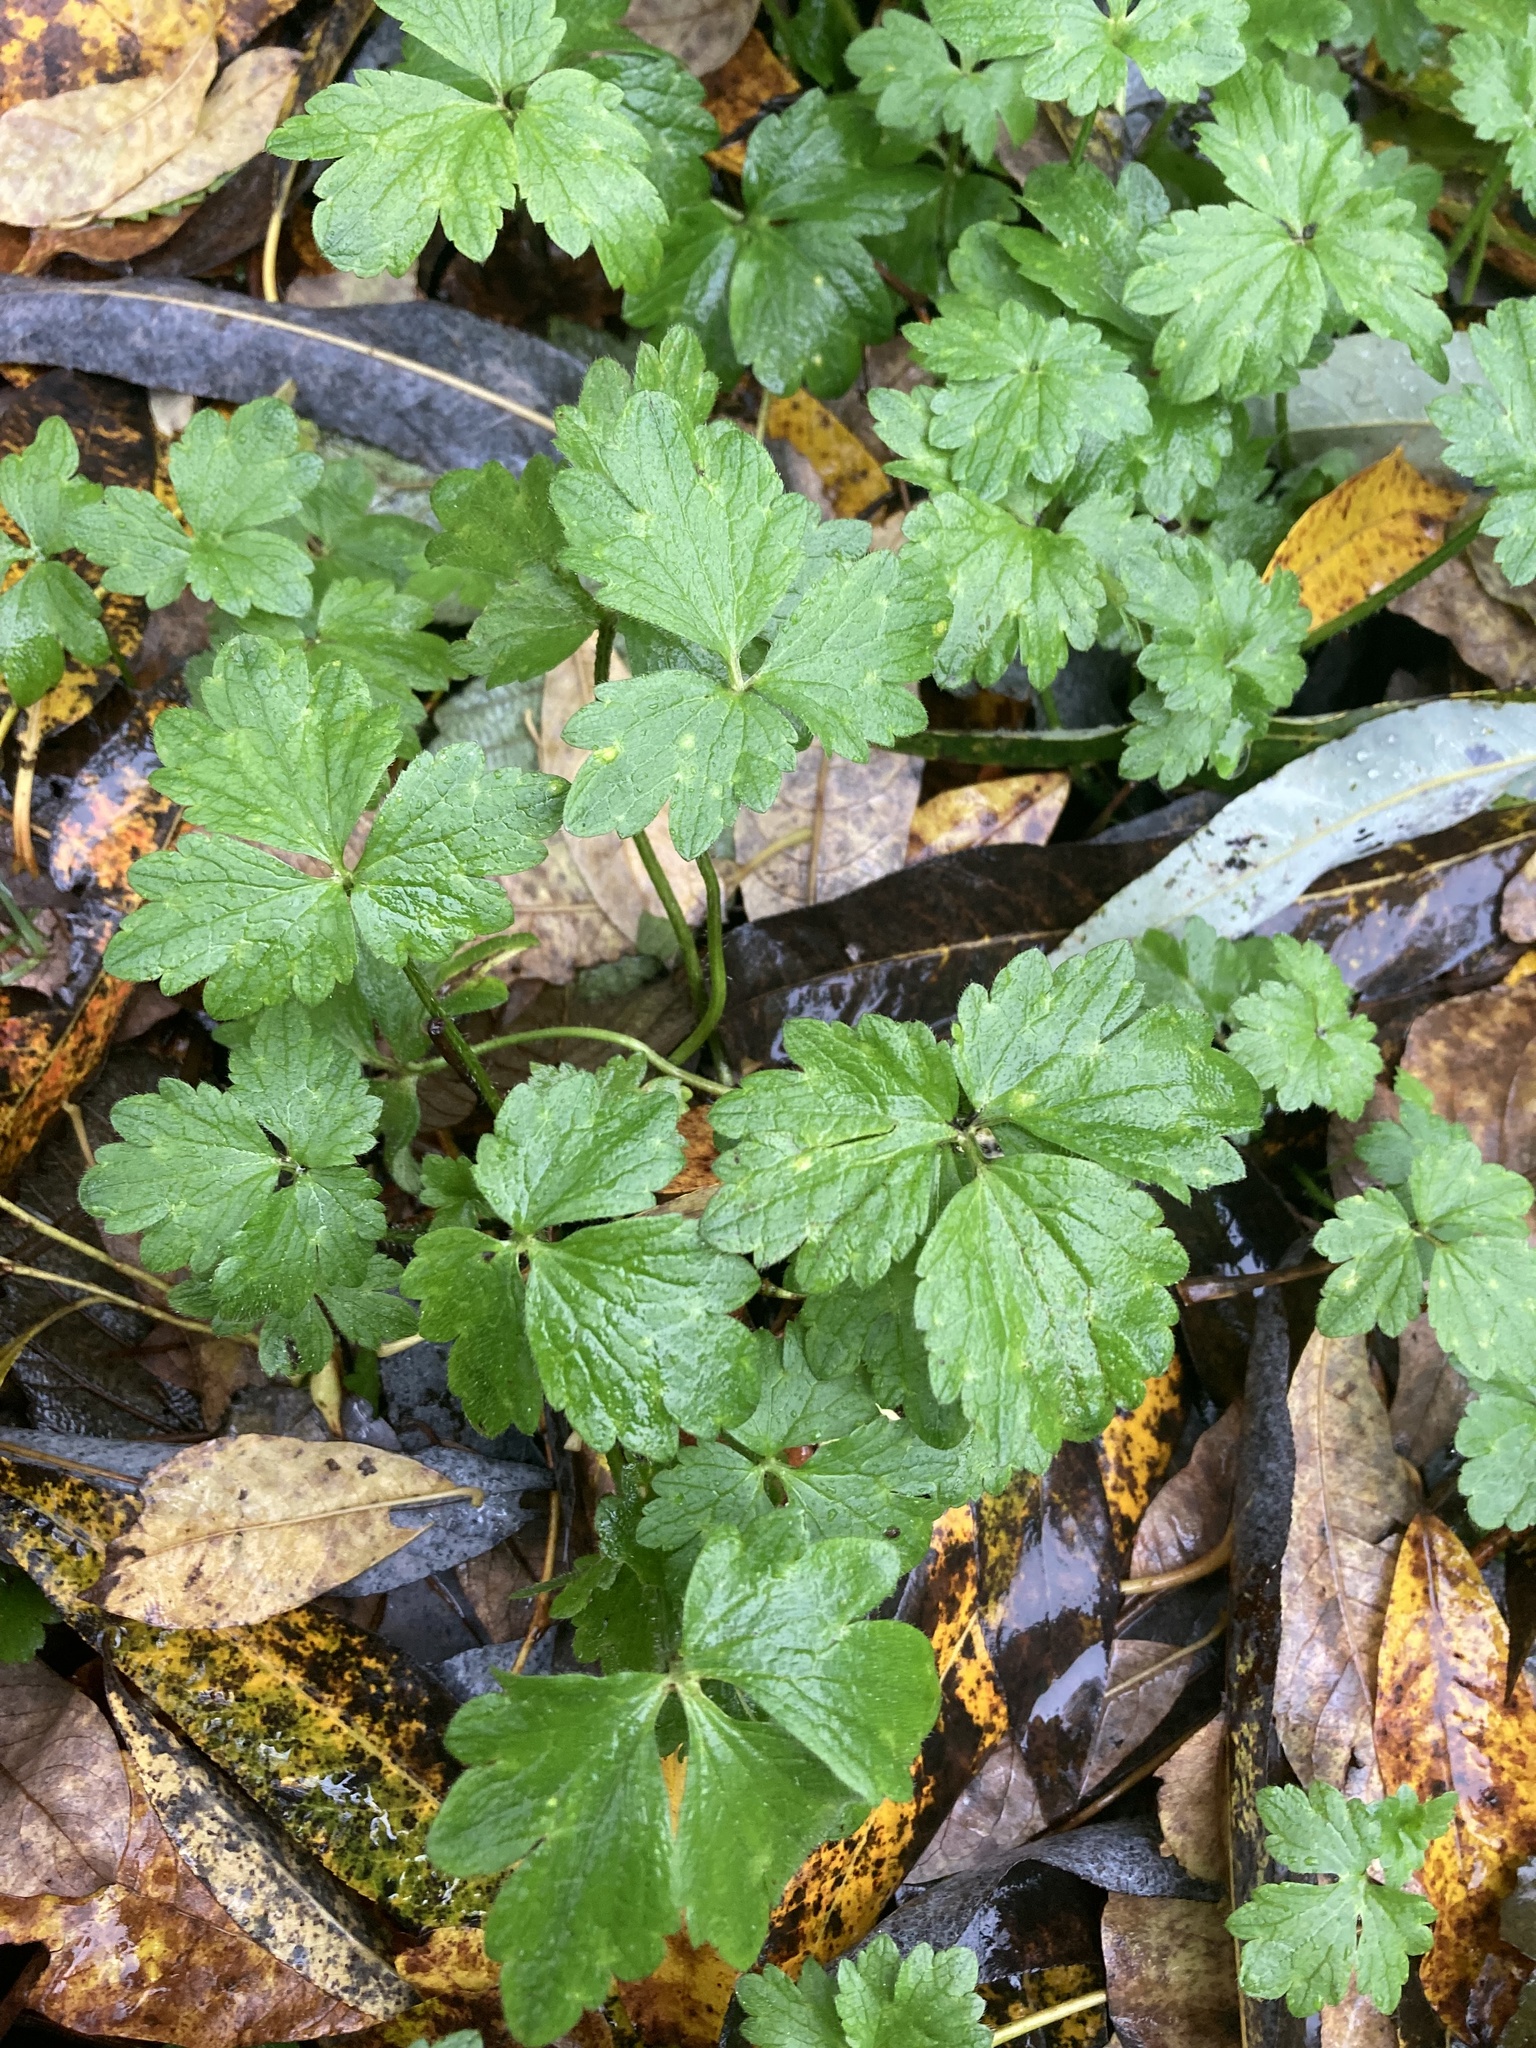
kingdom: Plantae
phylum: Tracheophyta
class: Magnoliopsida
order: Ranunculales
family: Ranunculaceae
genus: Ranunculus
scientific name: Ranunculus repens
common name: Creeping buttercup
